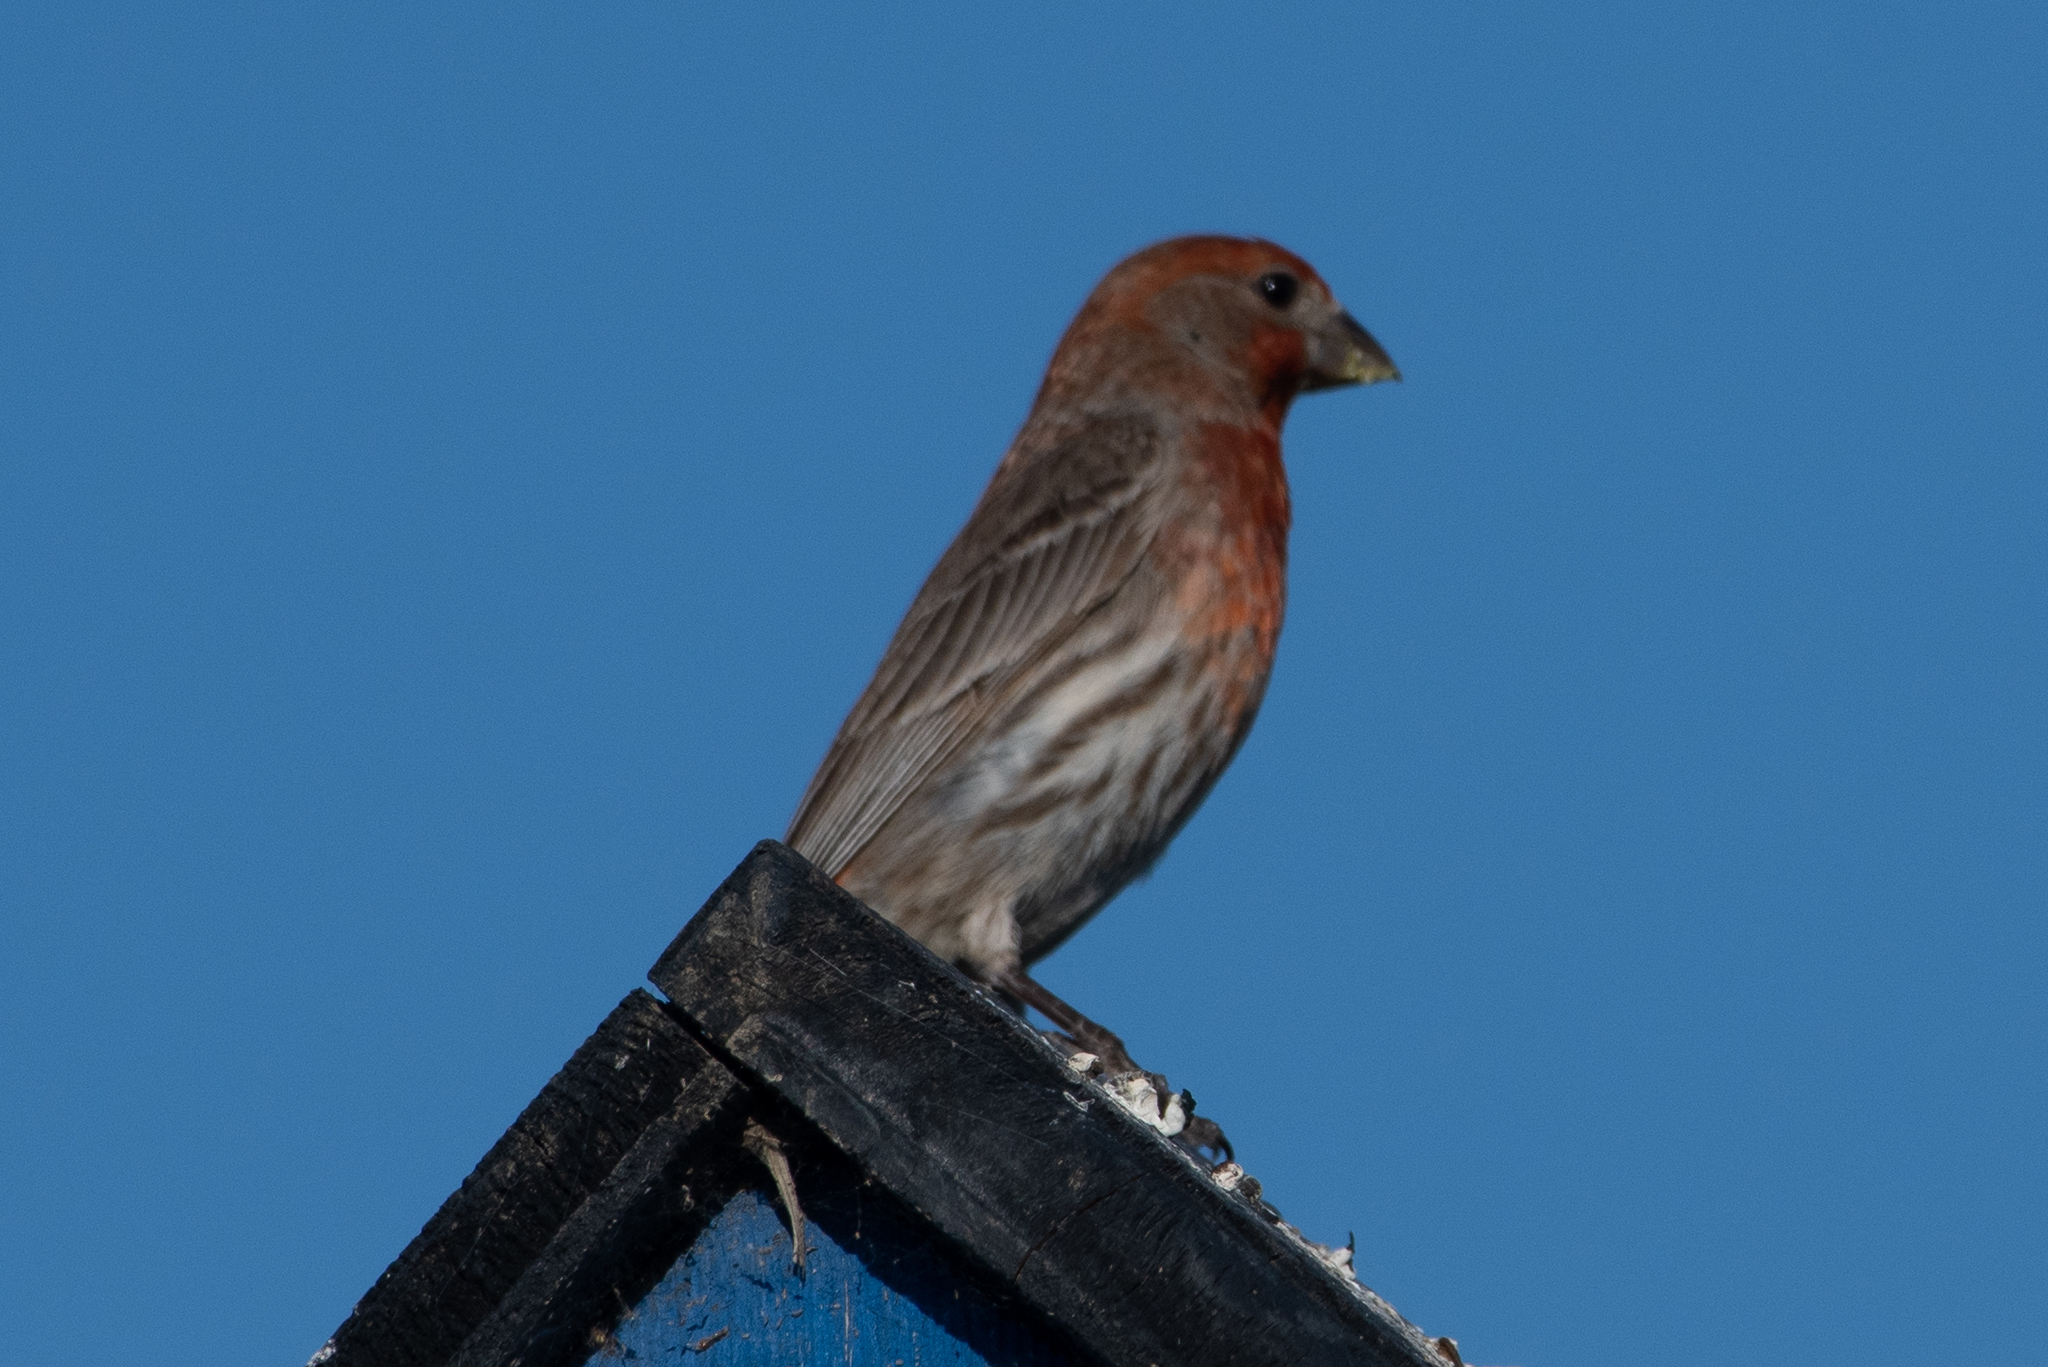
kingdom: Animalia
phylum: Chordata
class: Aves
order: Passeriformes
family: Fringillidae
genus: Haemorhous
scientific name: Haemorhous mexicanus
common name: House finch
